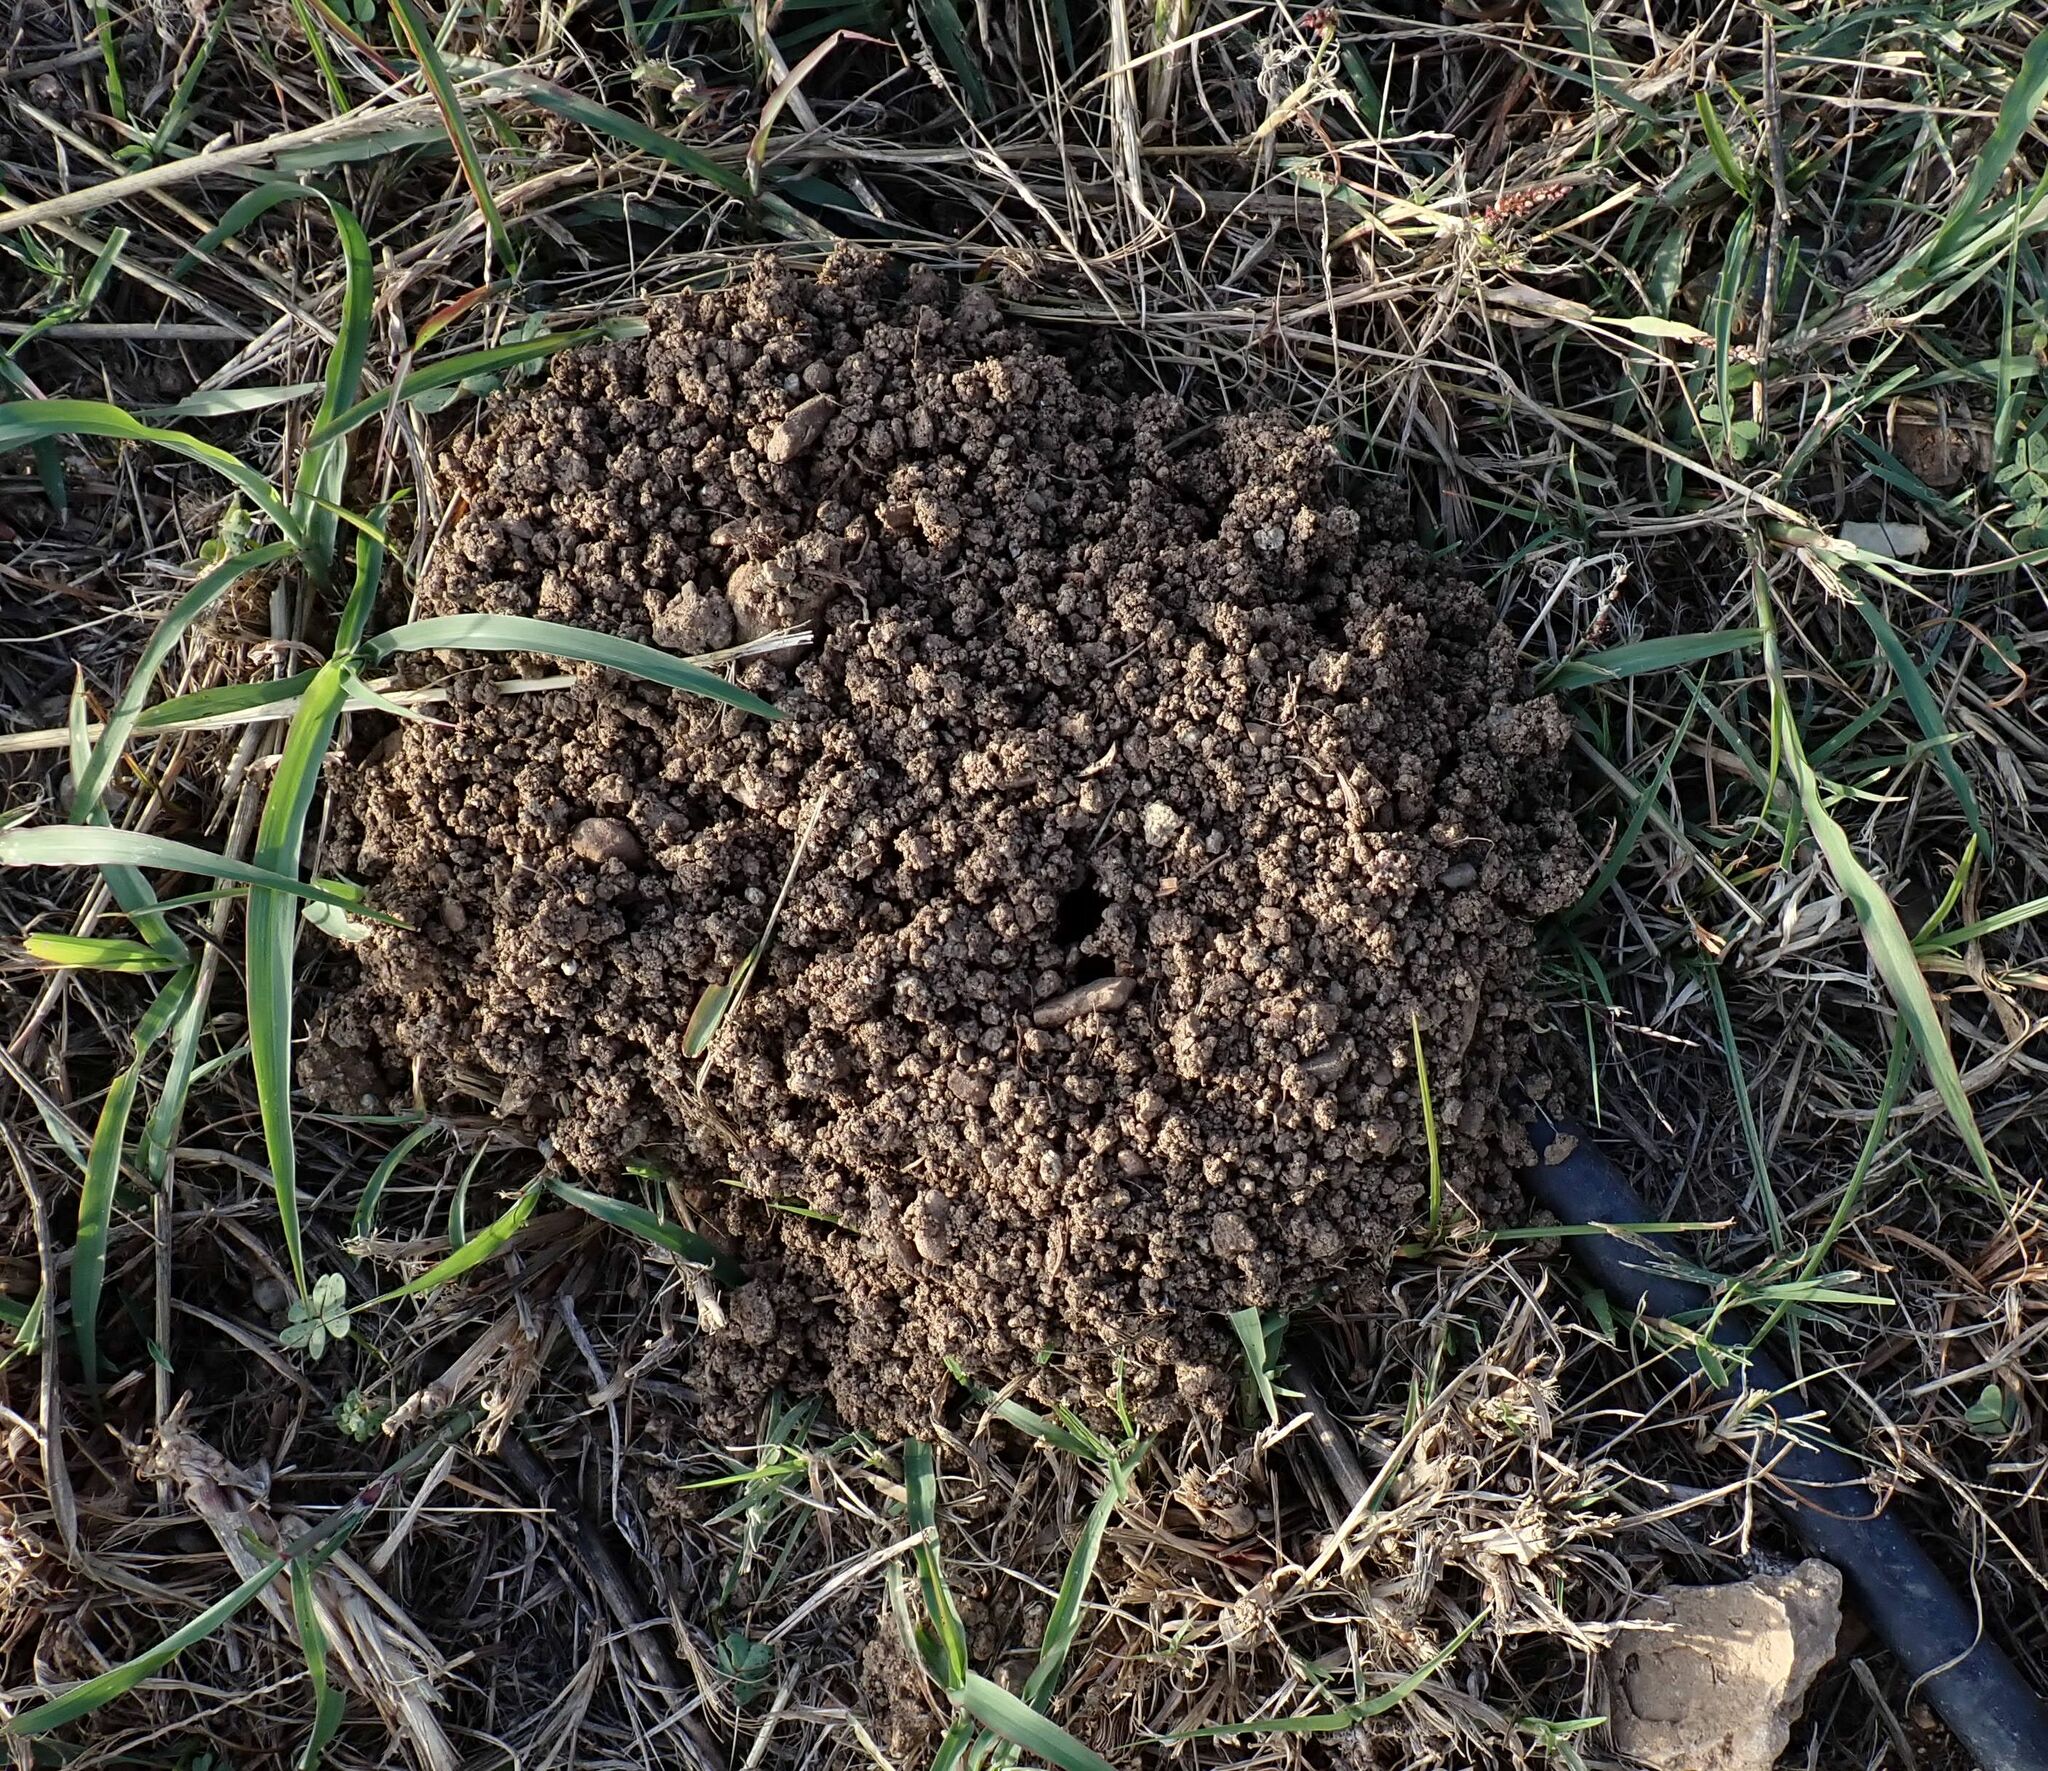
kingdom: Animalia
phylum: Chordata
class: Mammalia
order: Soricomorpha
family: Talpidae
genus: Talpa
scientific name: Talpa occidentalis
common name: Iberian mole
